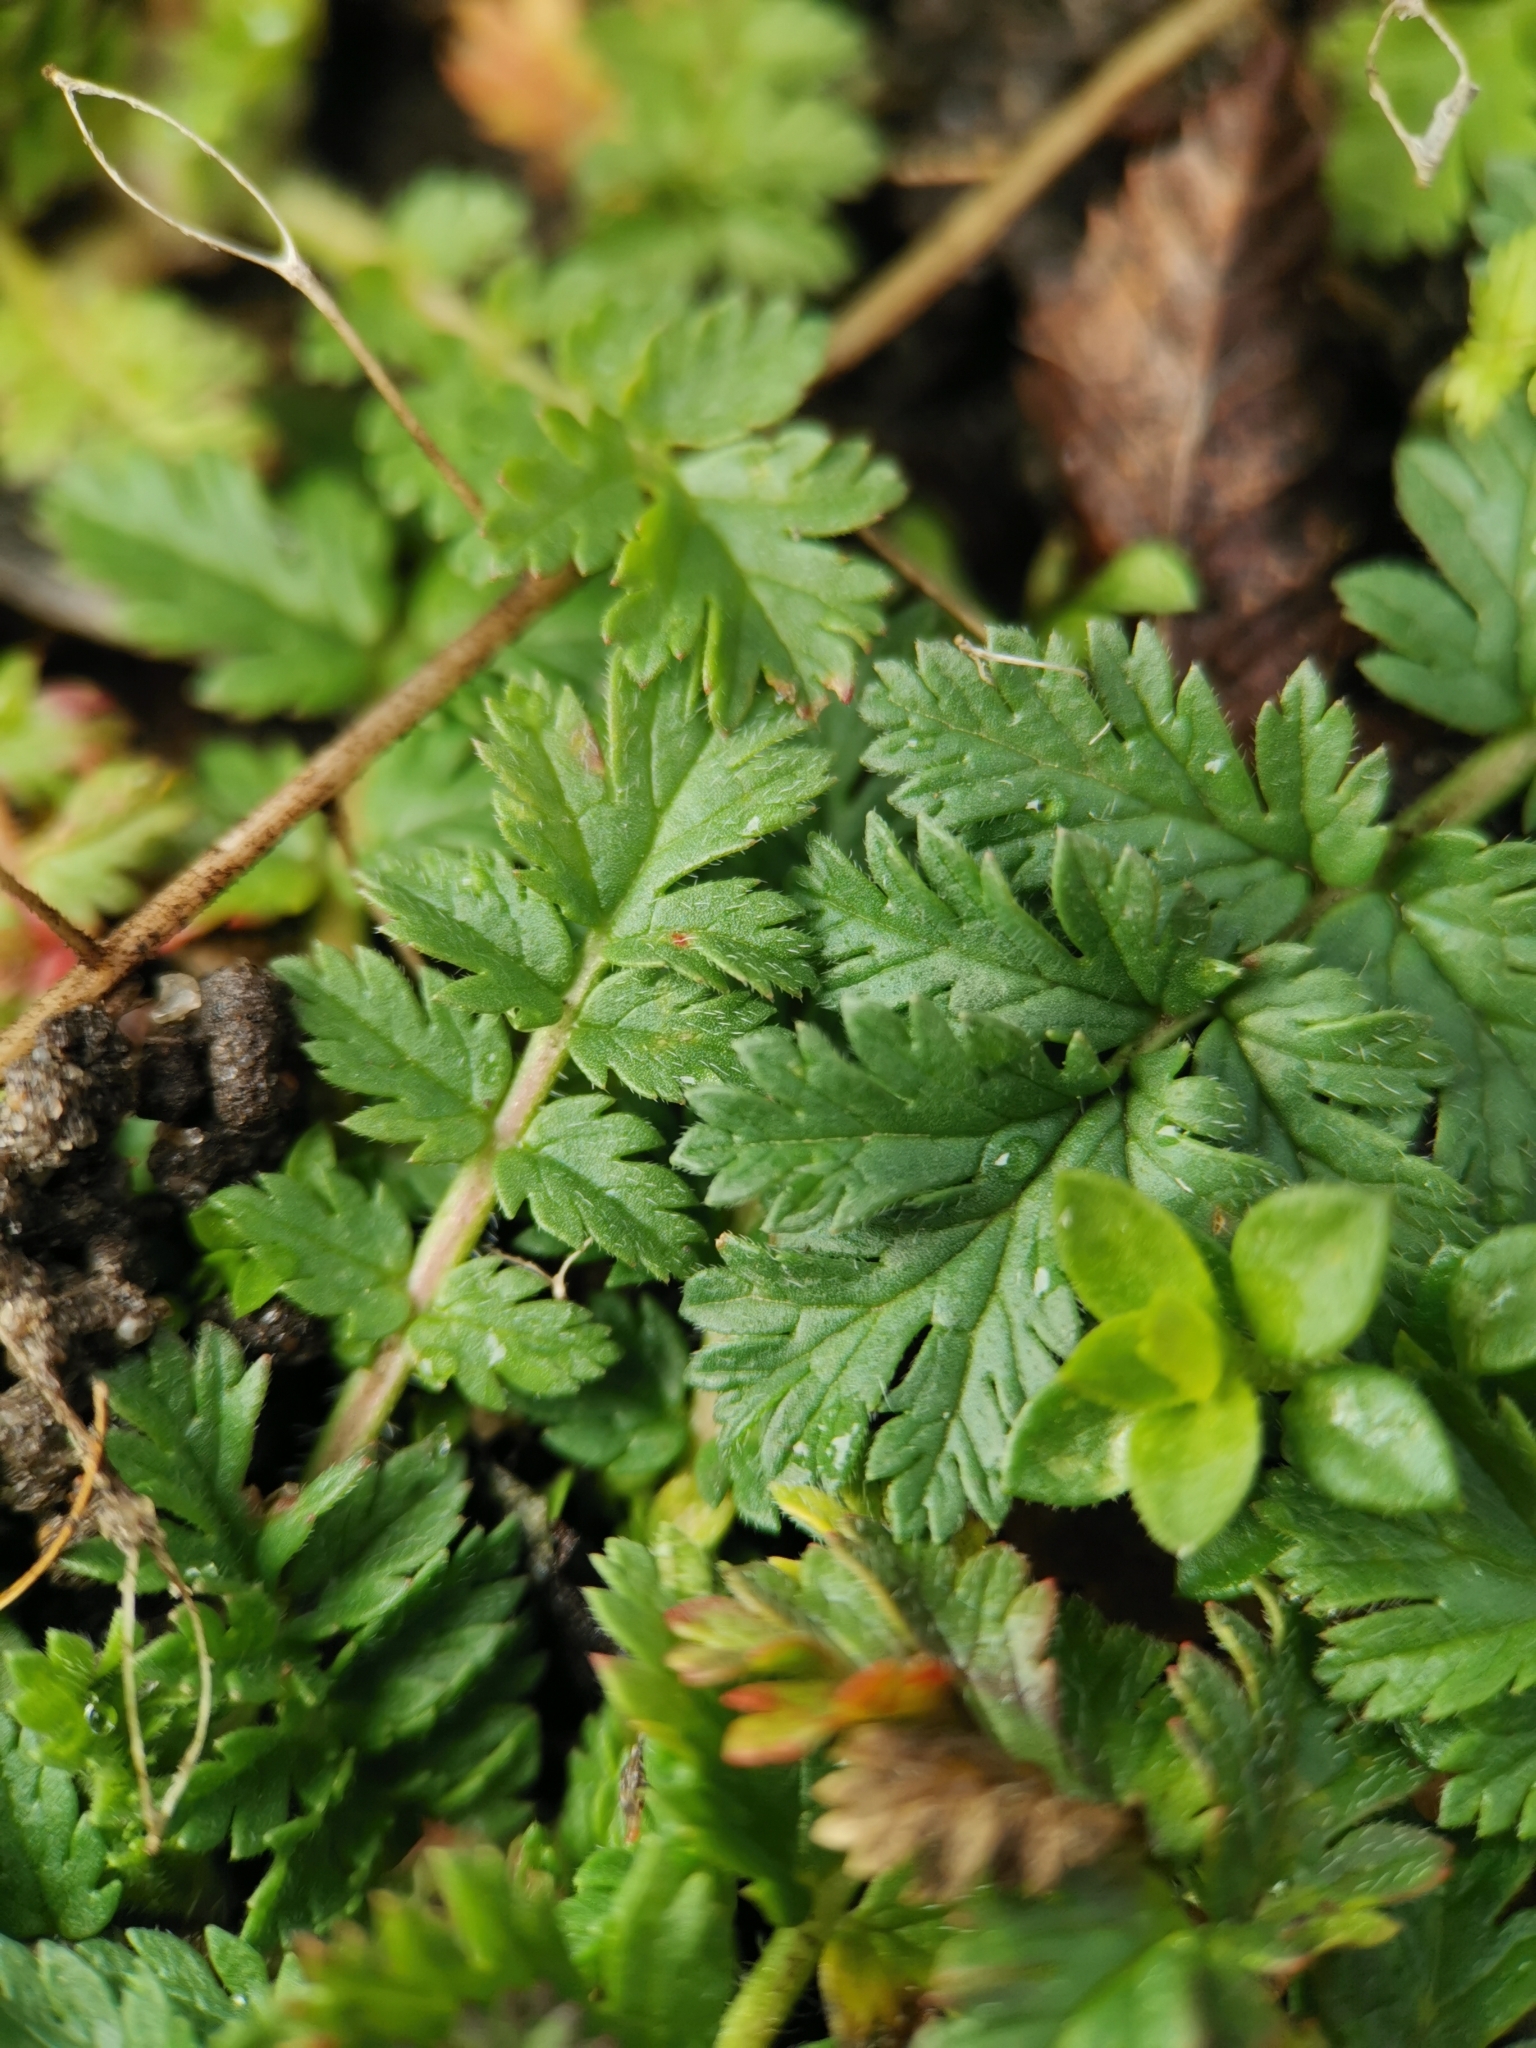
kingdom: Plantae
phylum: Tracheophyta
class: Magnoliopsida
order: Geraniales
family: Geraniaceae
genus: Erodium
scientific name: Erodium cicutarium
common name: Common stork's-bill
